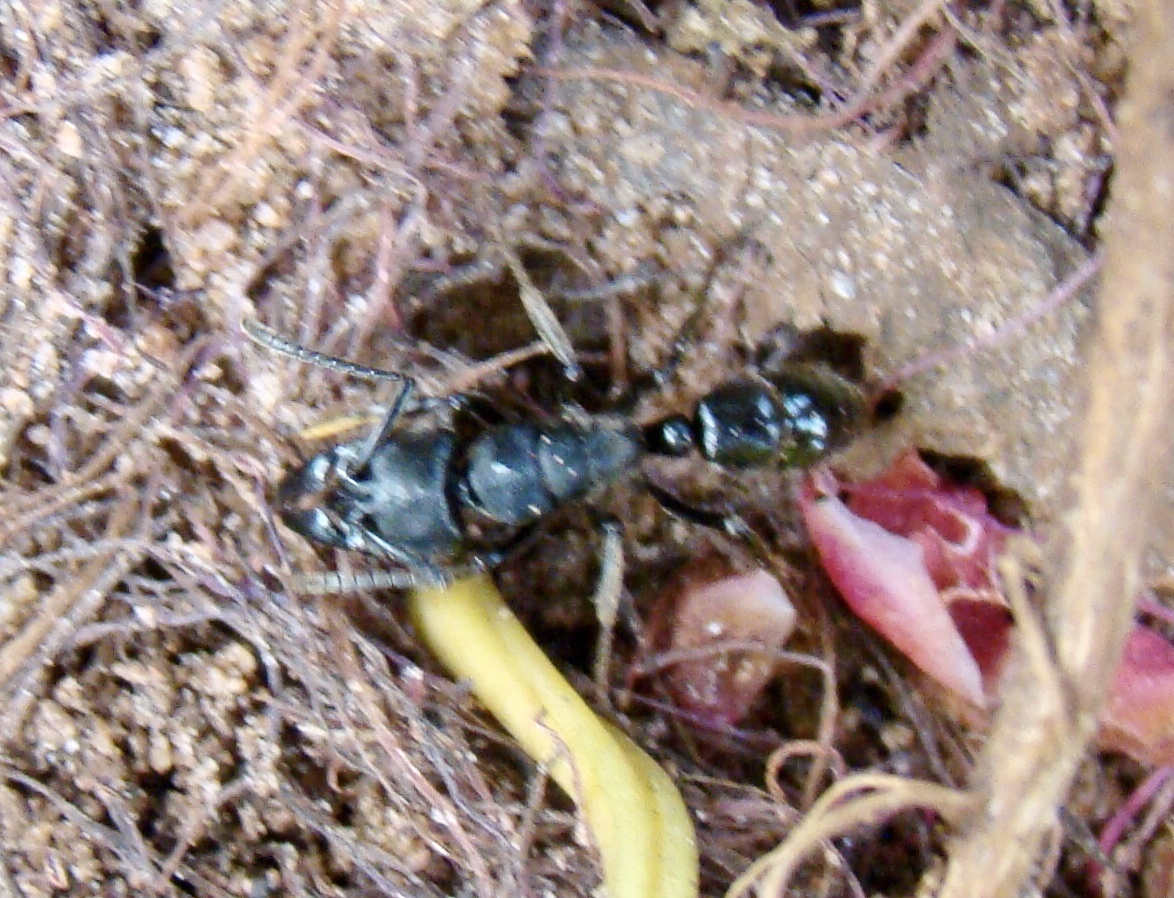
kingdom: Animalia
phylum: Arthropoda
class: Insecta
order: Hymenoptera
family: Formicidae
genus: Paltothyreus
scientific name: Paltothyreus tarsatus
